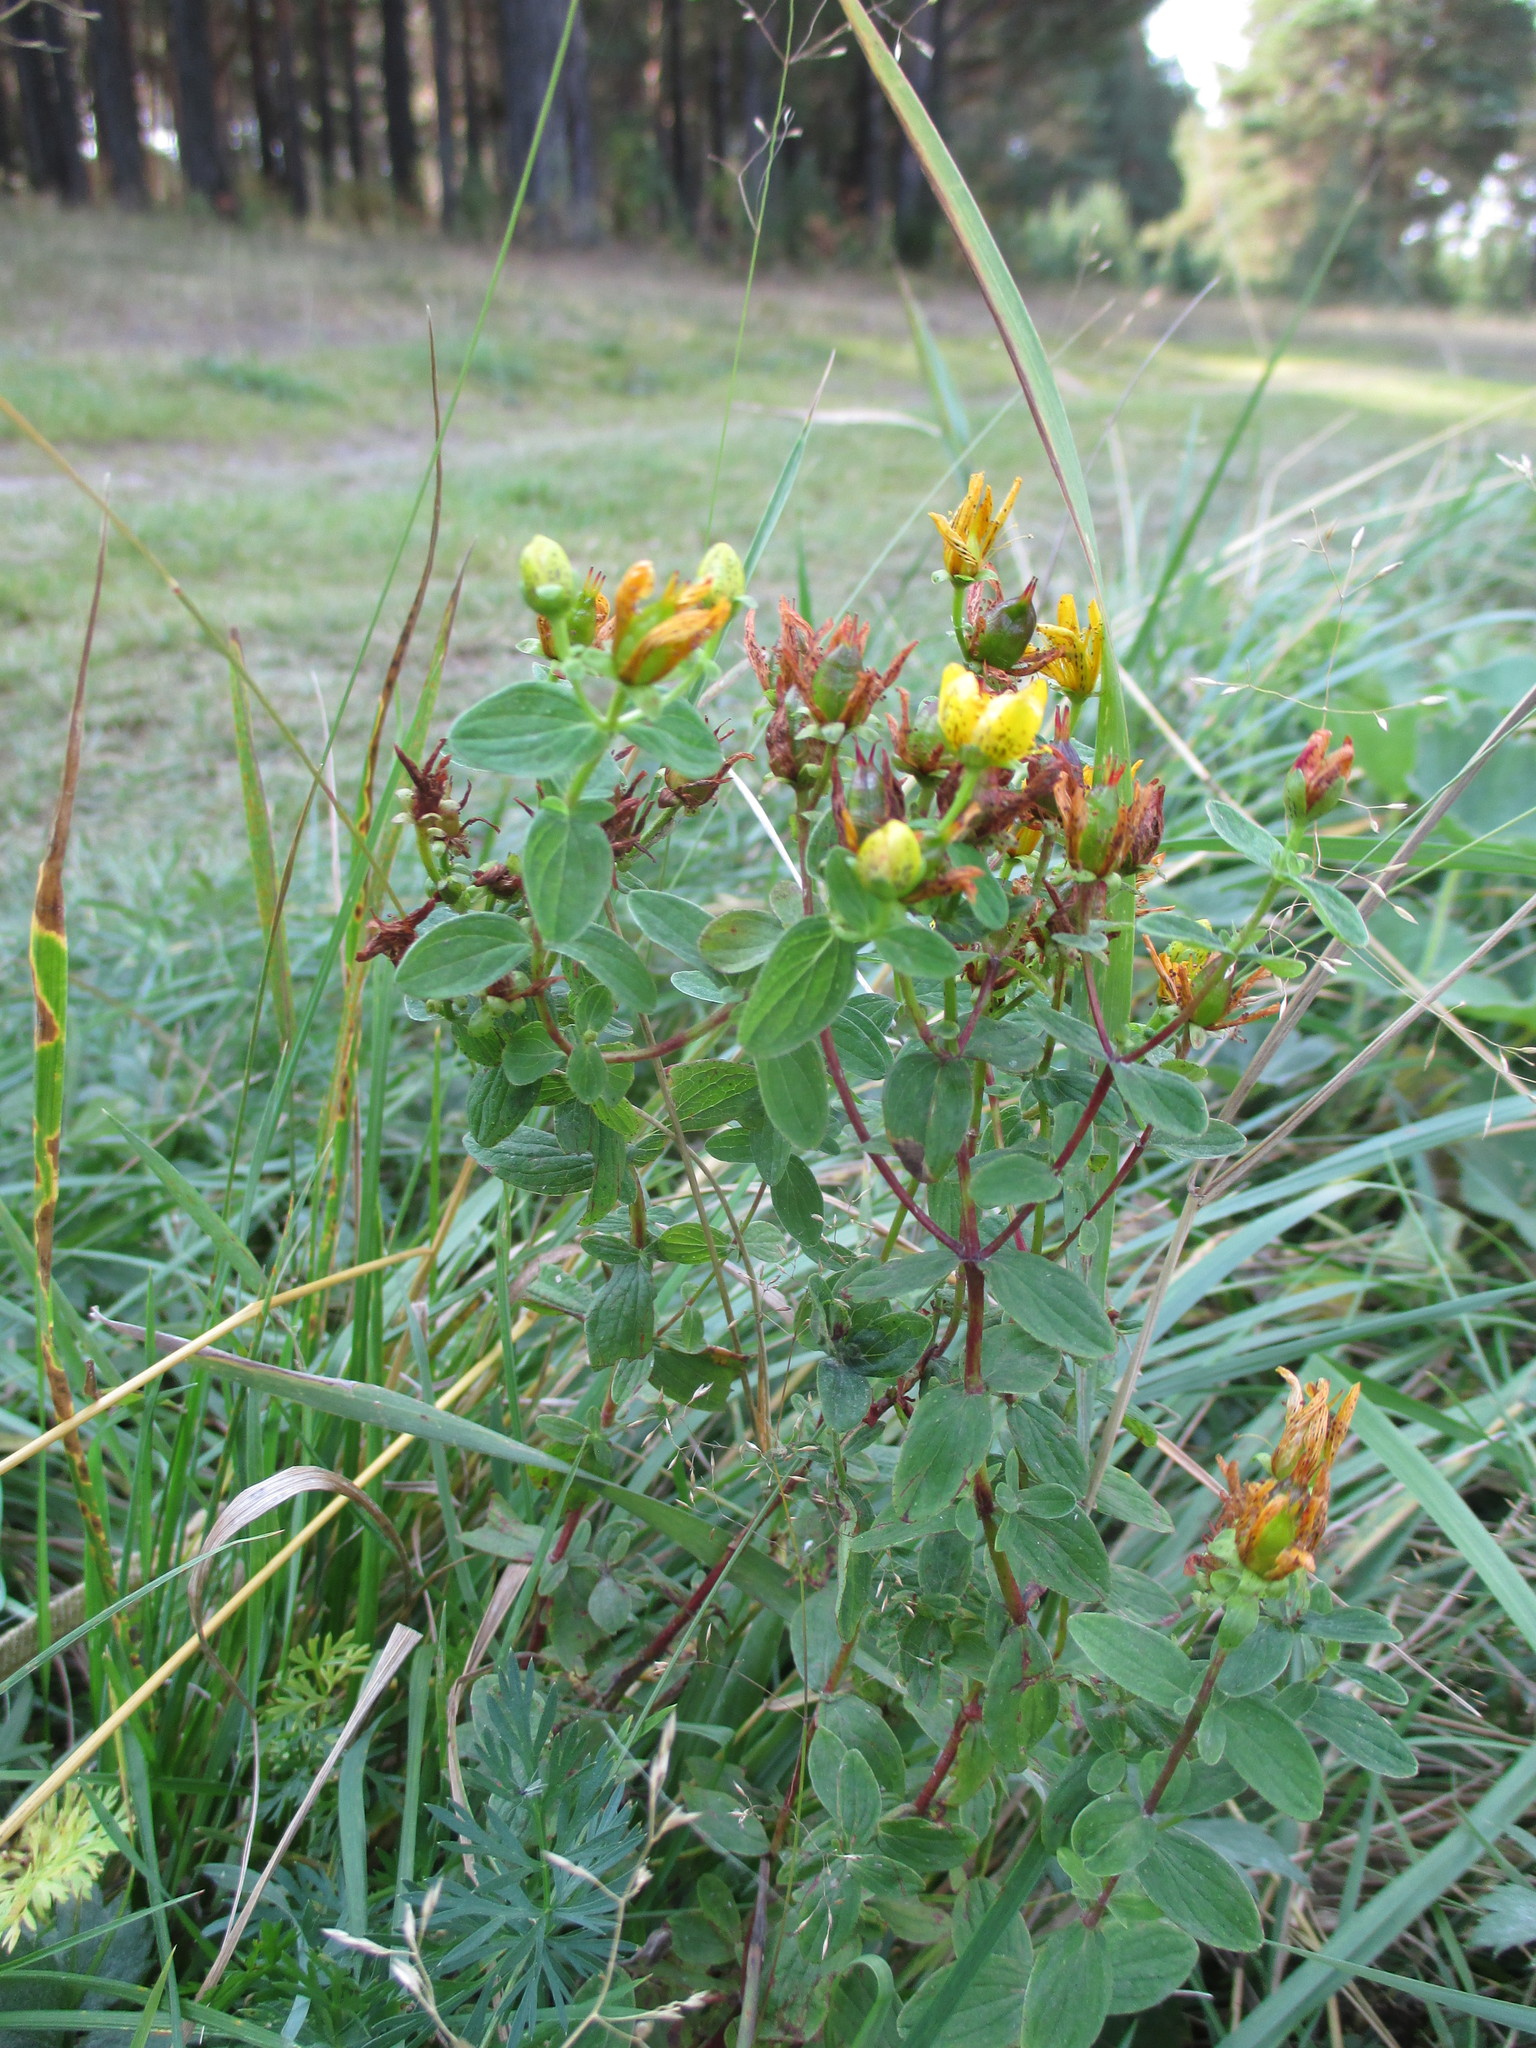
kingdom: Plantae
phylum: Tracheophyta
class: Magnoliopsida
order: Malpighiales
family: Hypericaceae
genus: Hypericum
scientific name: Hypericum maculatum
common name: Imperforate st. john's-wort
